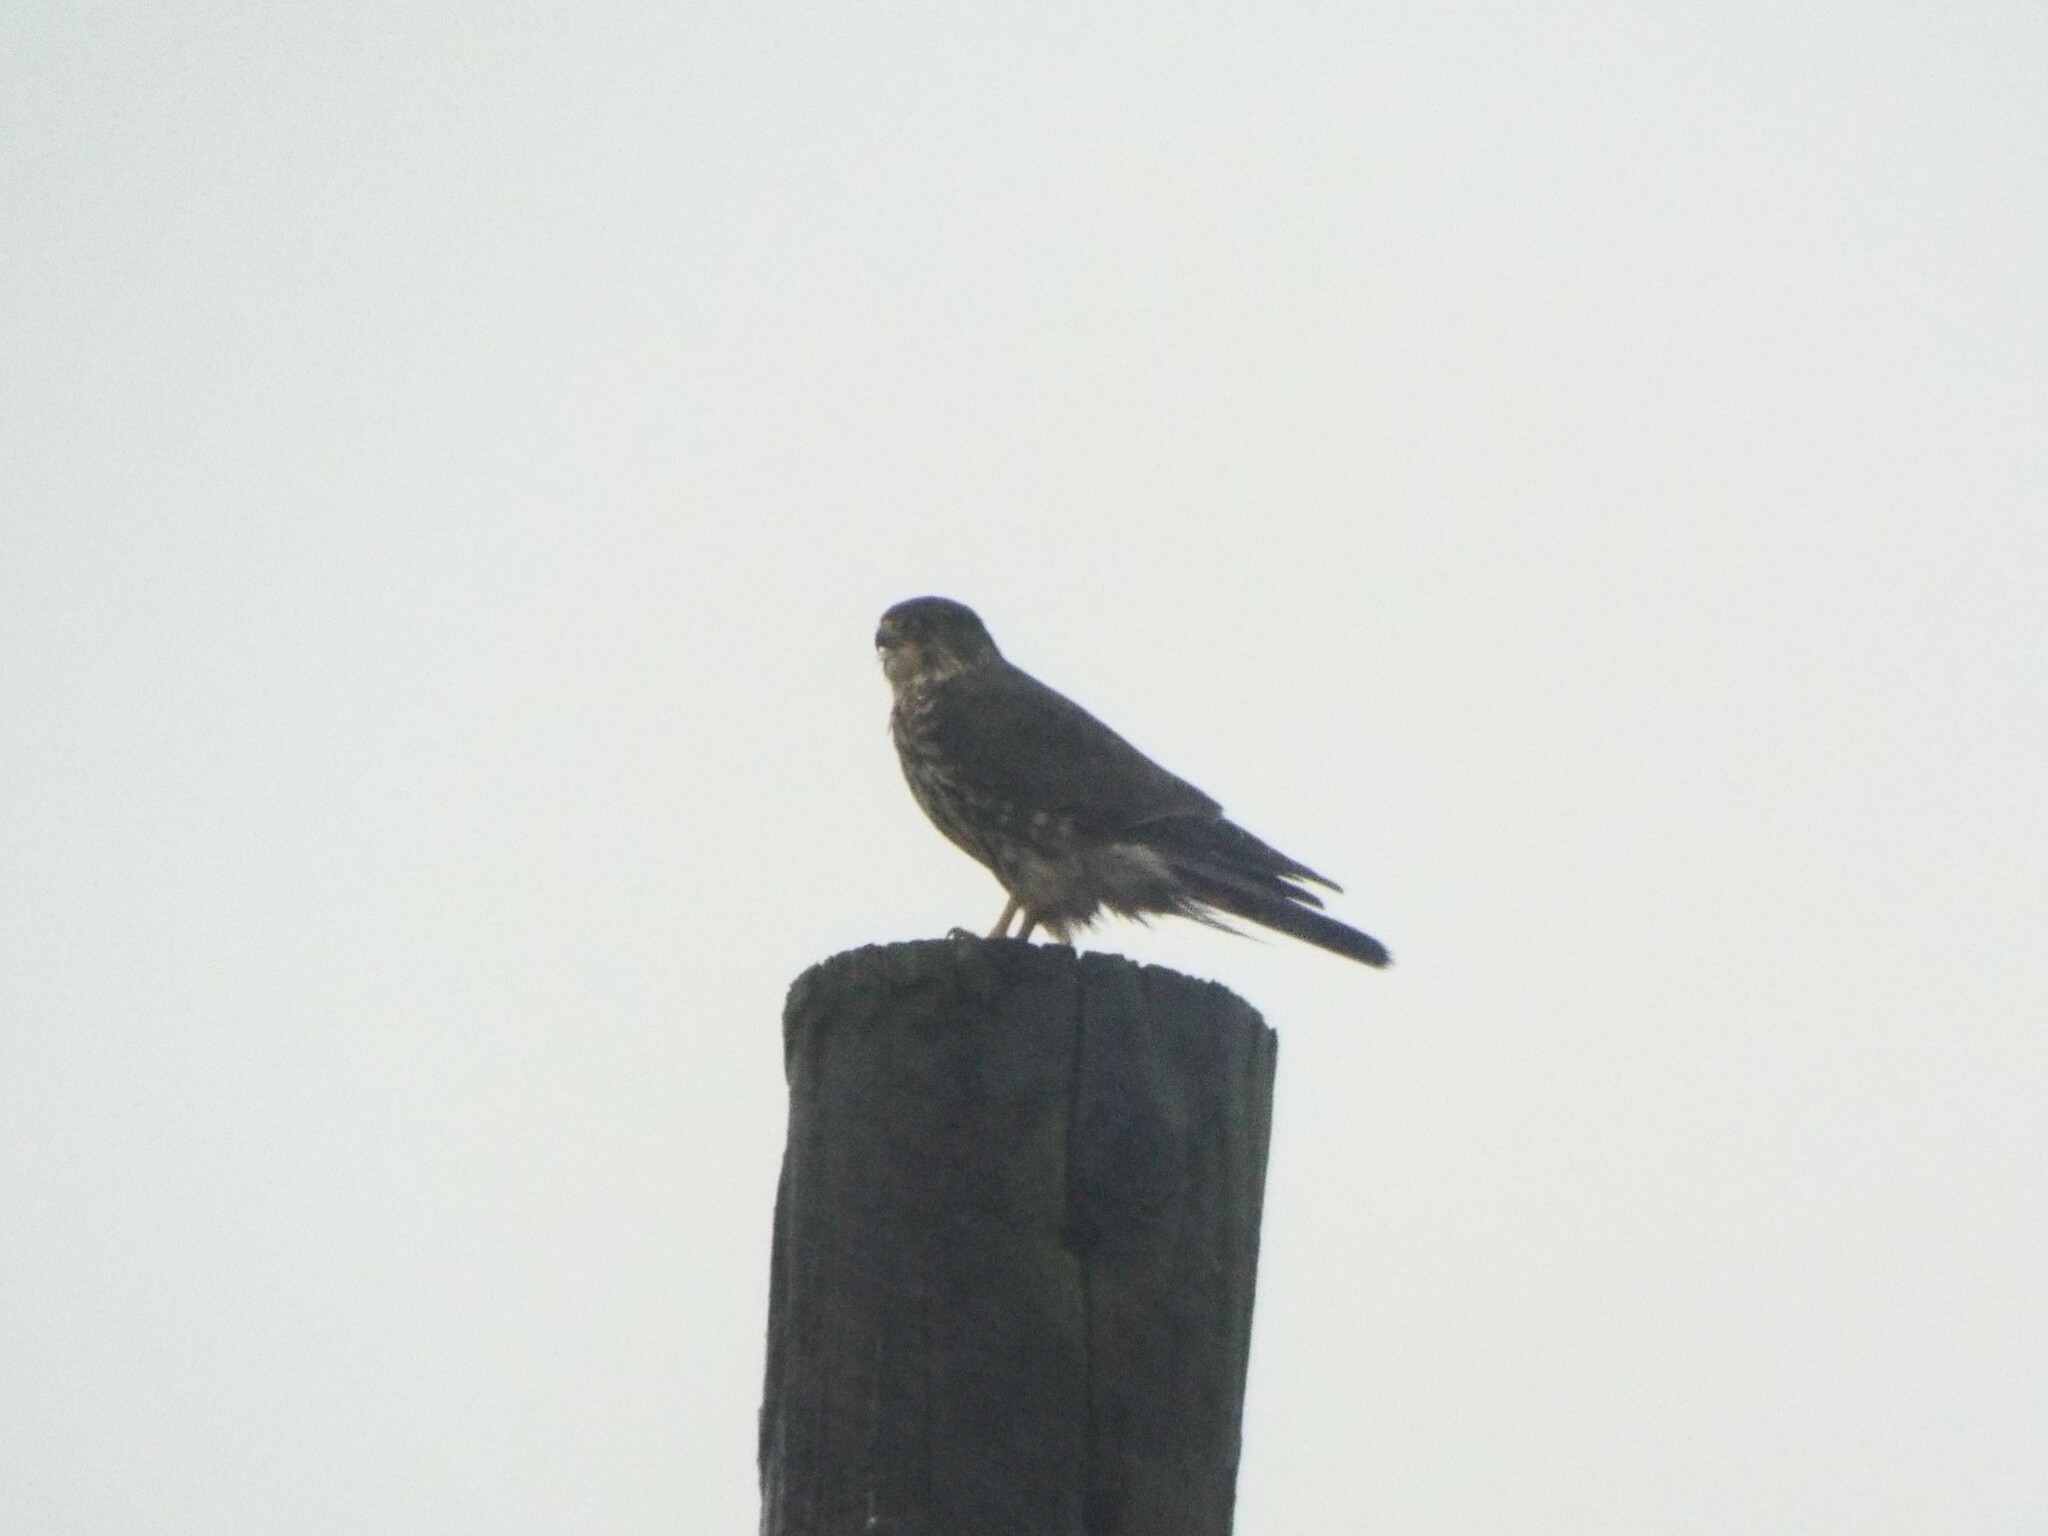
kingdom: Animalia
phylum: Chordata
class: Aves
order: Falconiformes
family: Falconidae
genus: Falco
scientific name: Falco columbarius
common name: Merlin
